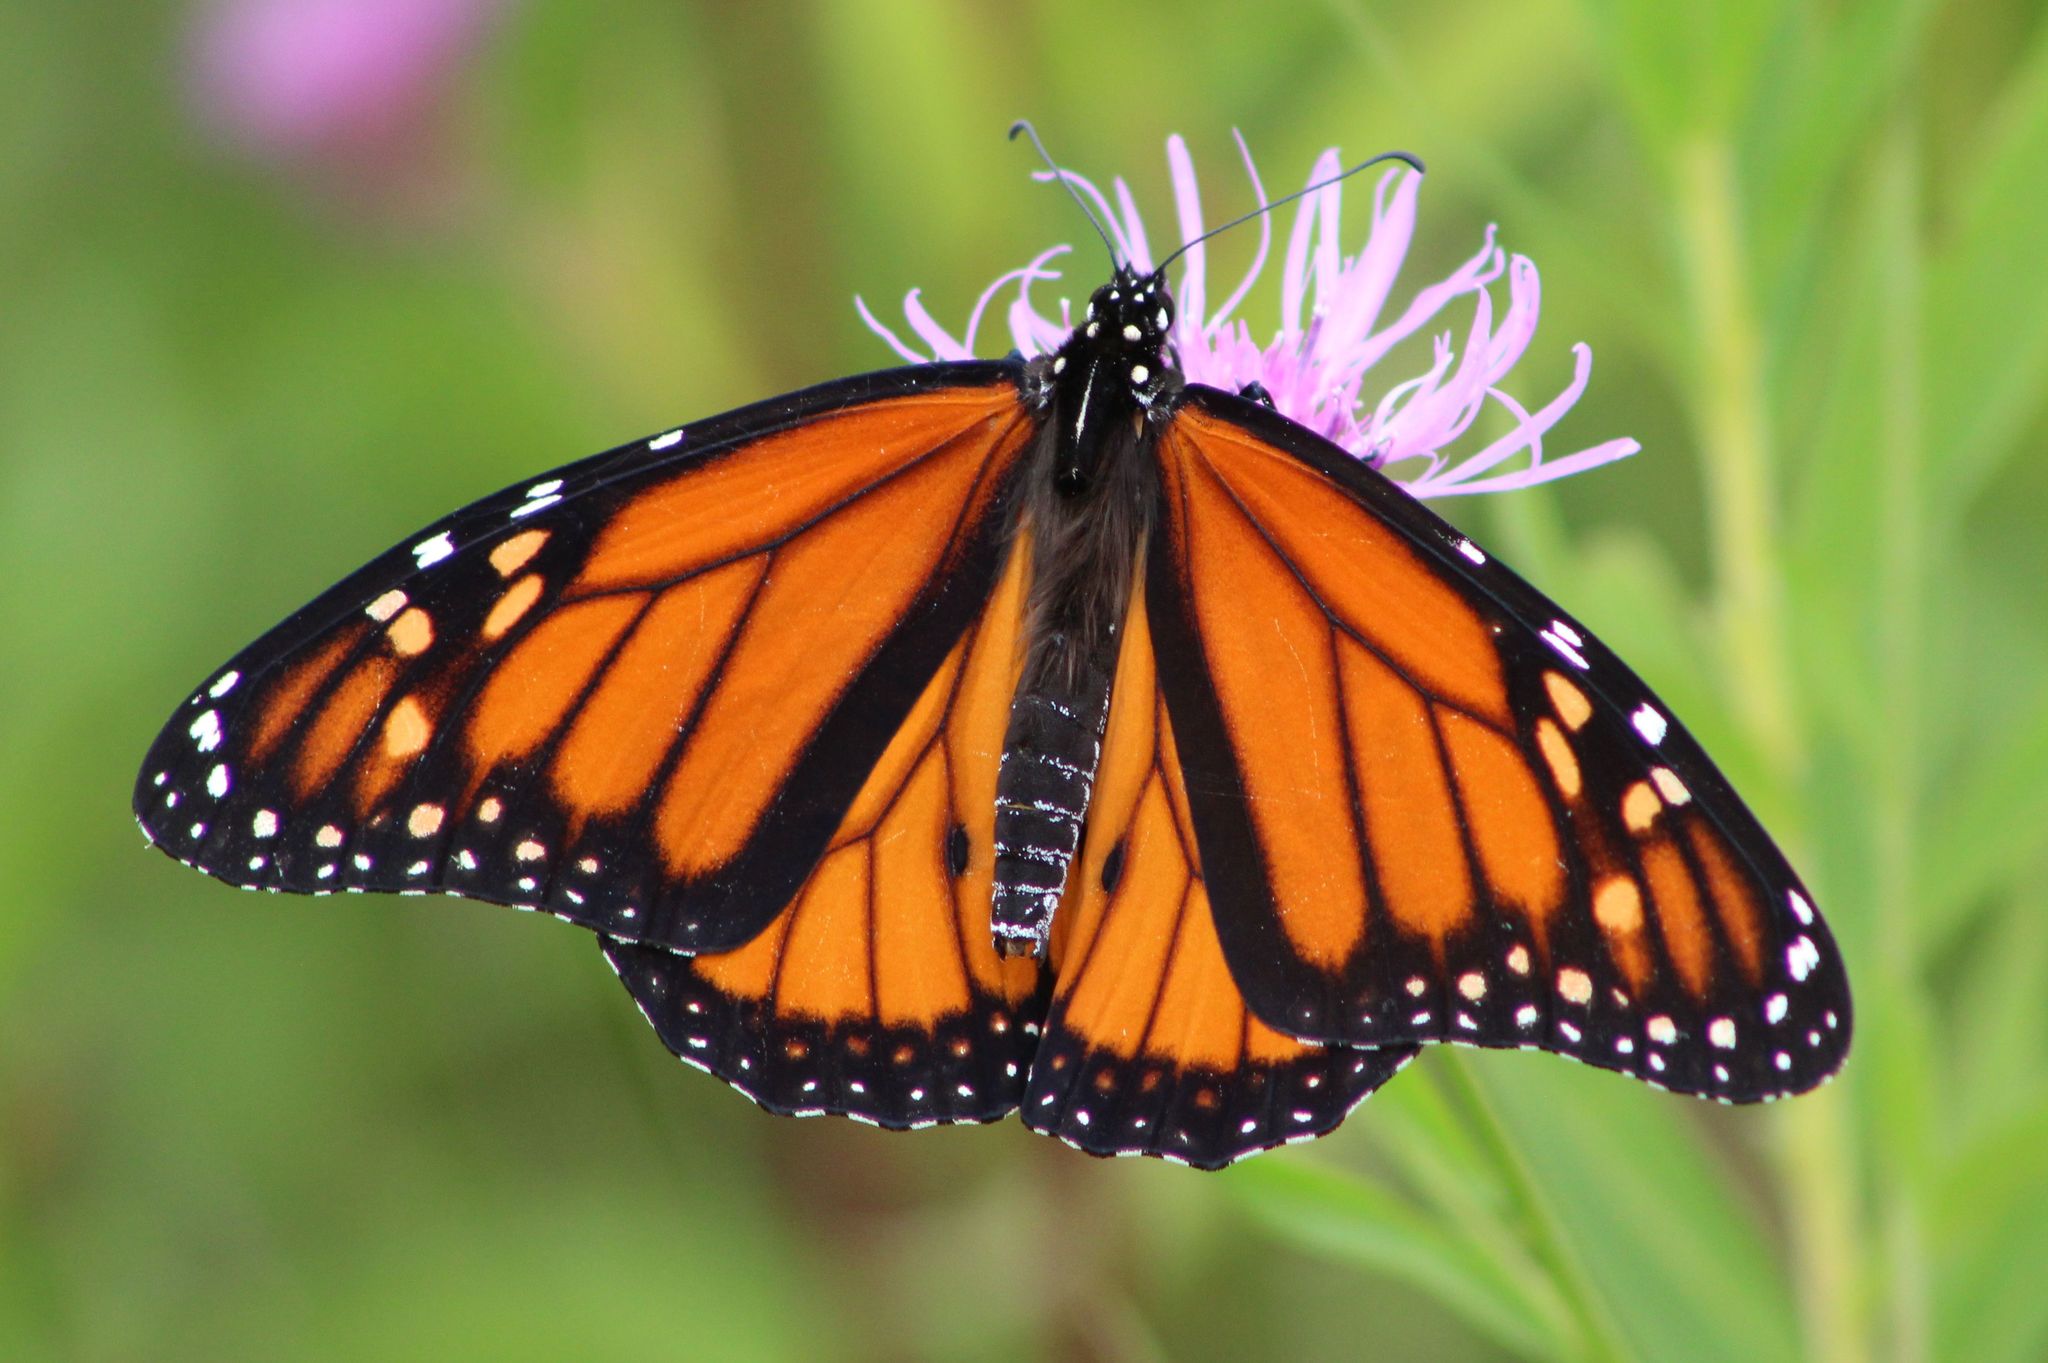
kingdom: Animalia
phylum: Arthropoda
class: Insecta
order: Lepidoptera
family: Nymphalidae
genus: Danaus
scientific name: Danaus plexippus
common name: Monarch
